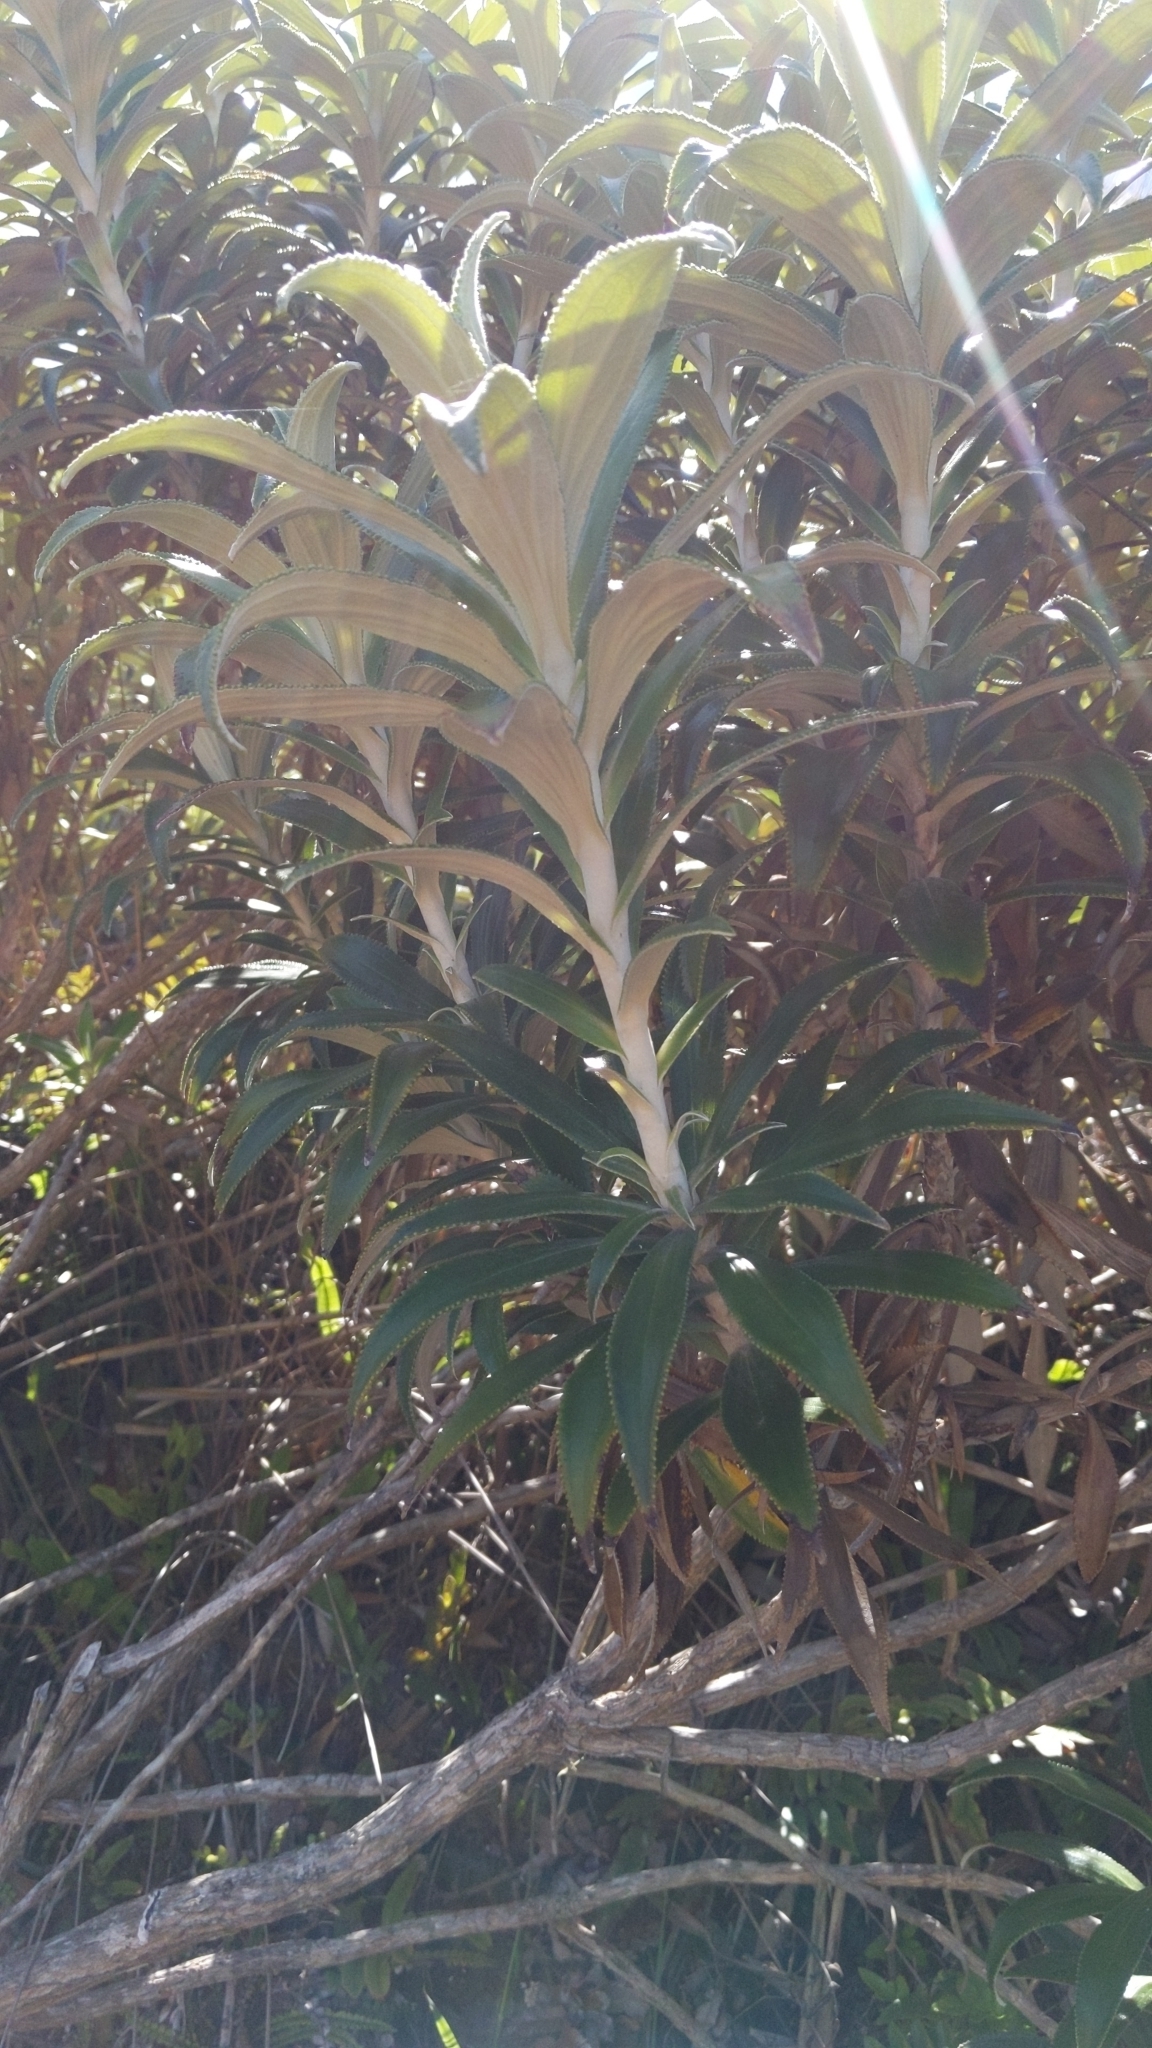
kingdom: Plantae
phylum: Tracheophyta
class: Magnoliopsida
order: Asterales
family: Asteraceae
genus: Macrolearia
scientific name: Macrolearia angustifolia
